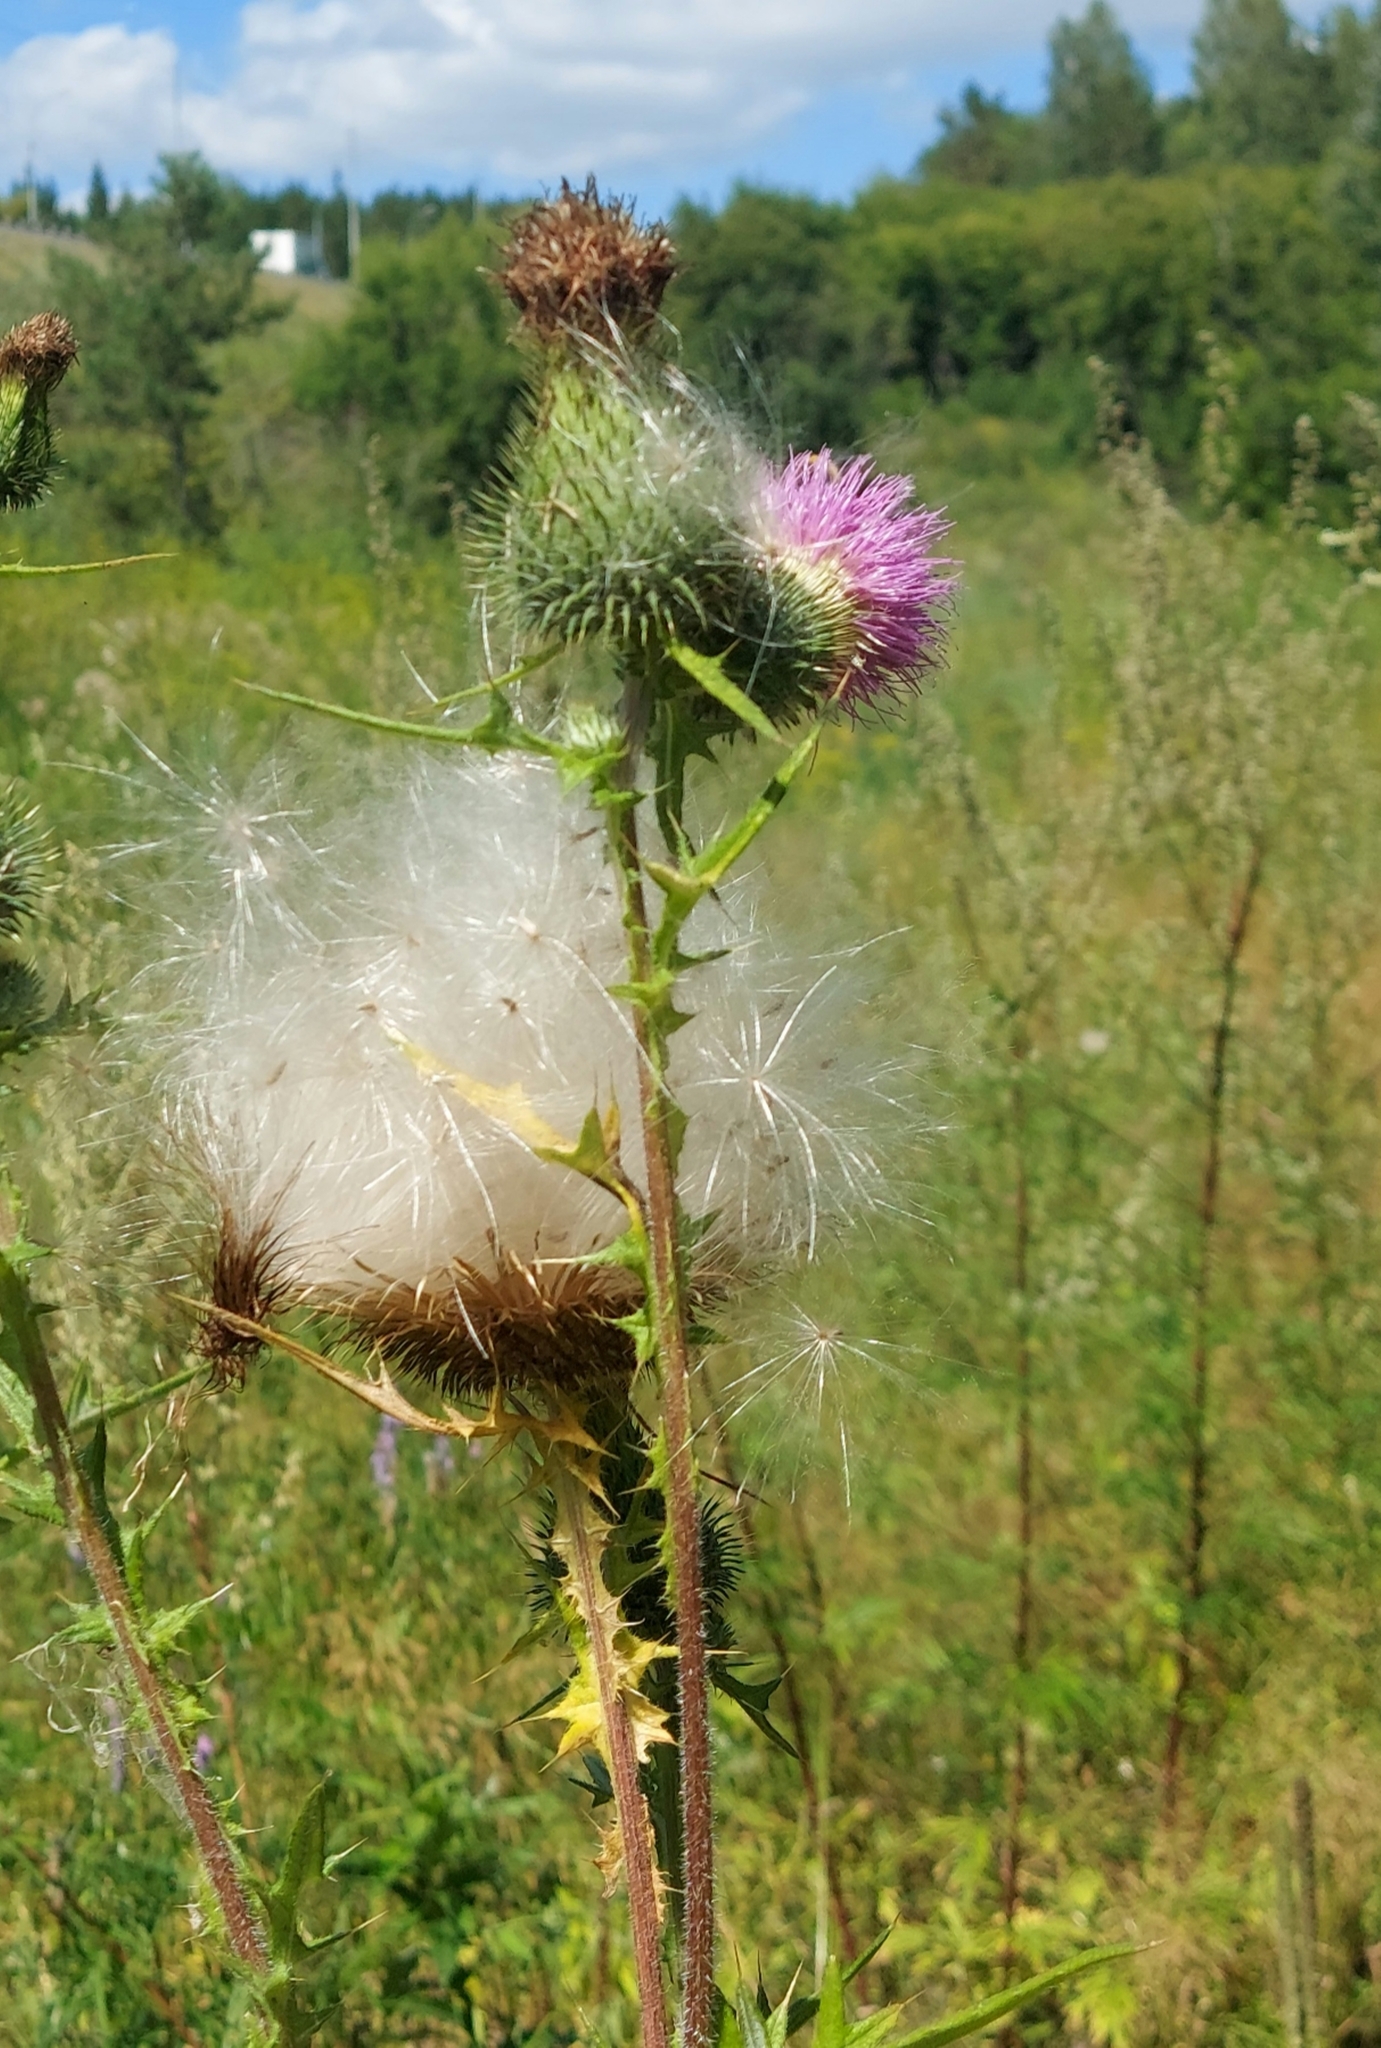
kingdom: Plantae
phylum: Tracheophyta
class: Magnoliopsida
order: Asterales
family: Asteraceae
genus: Cirsium
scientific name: Cirsium vulgare
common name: Bull thistle
